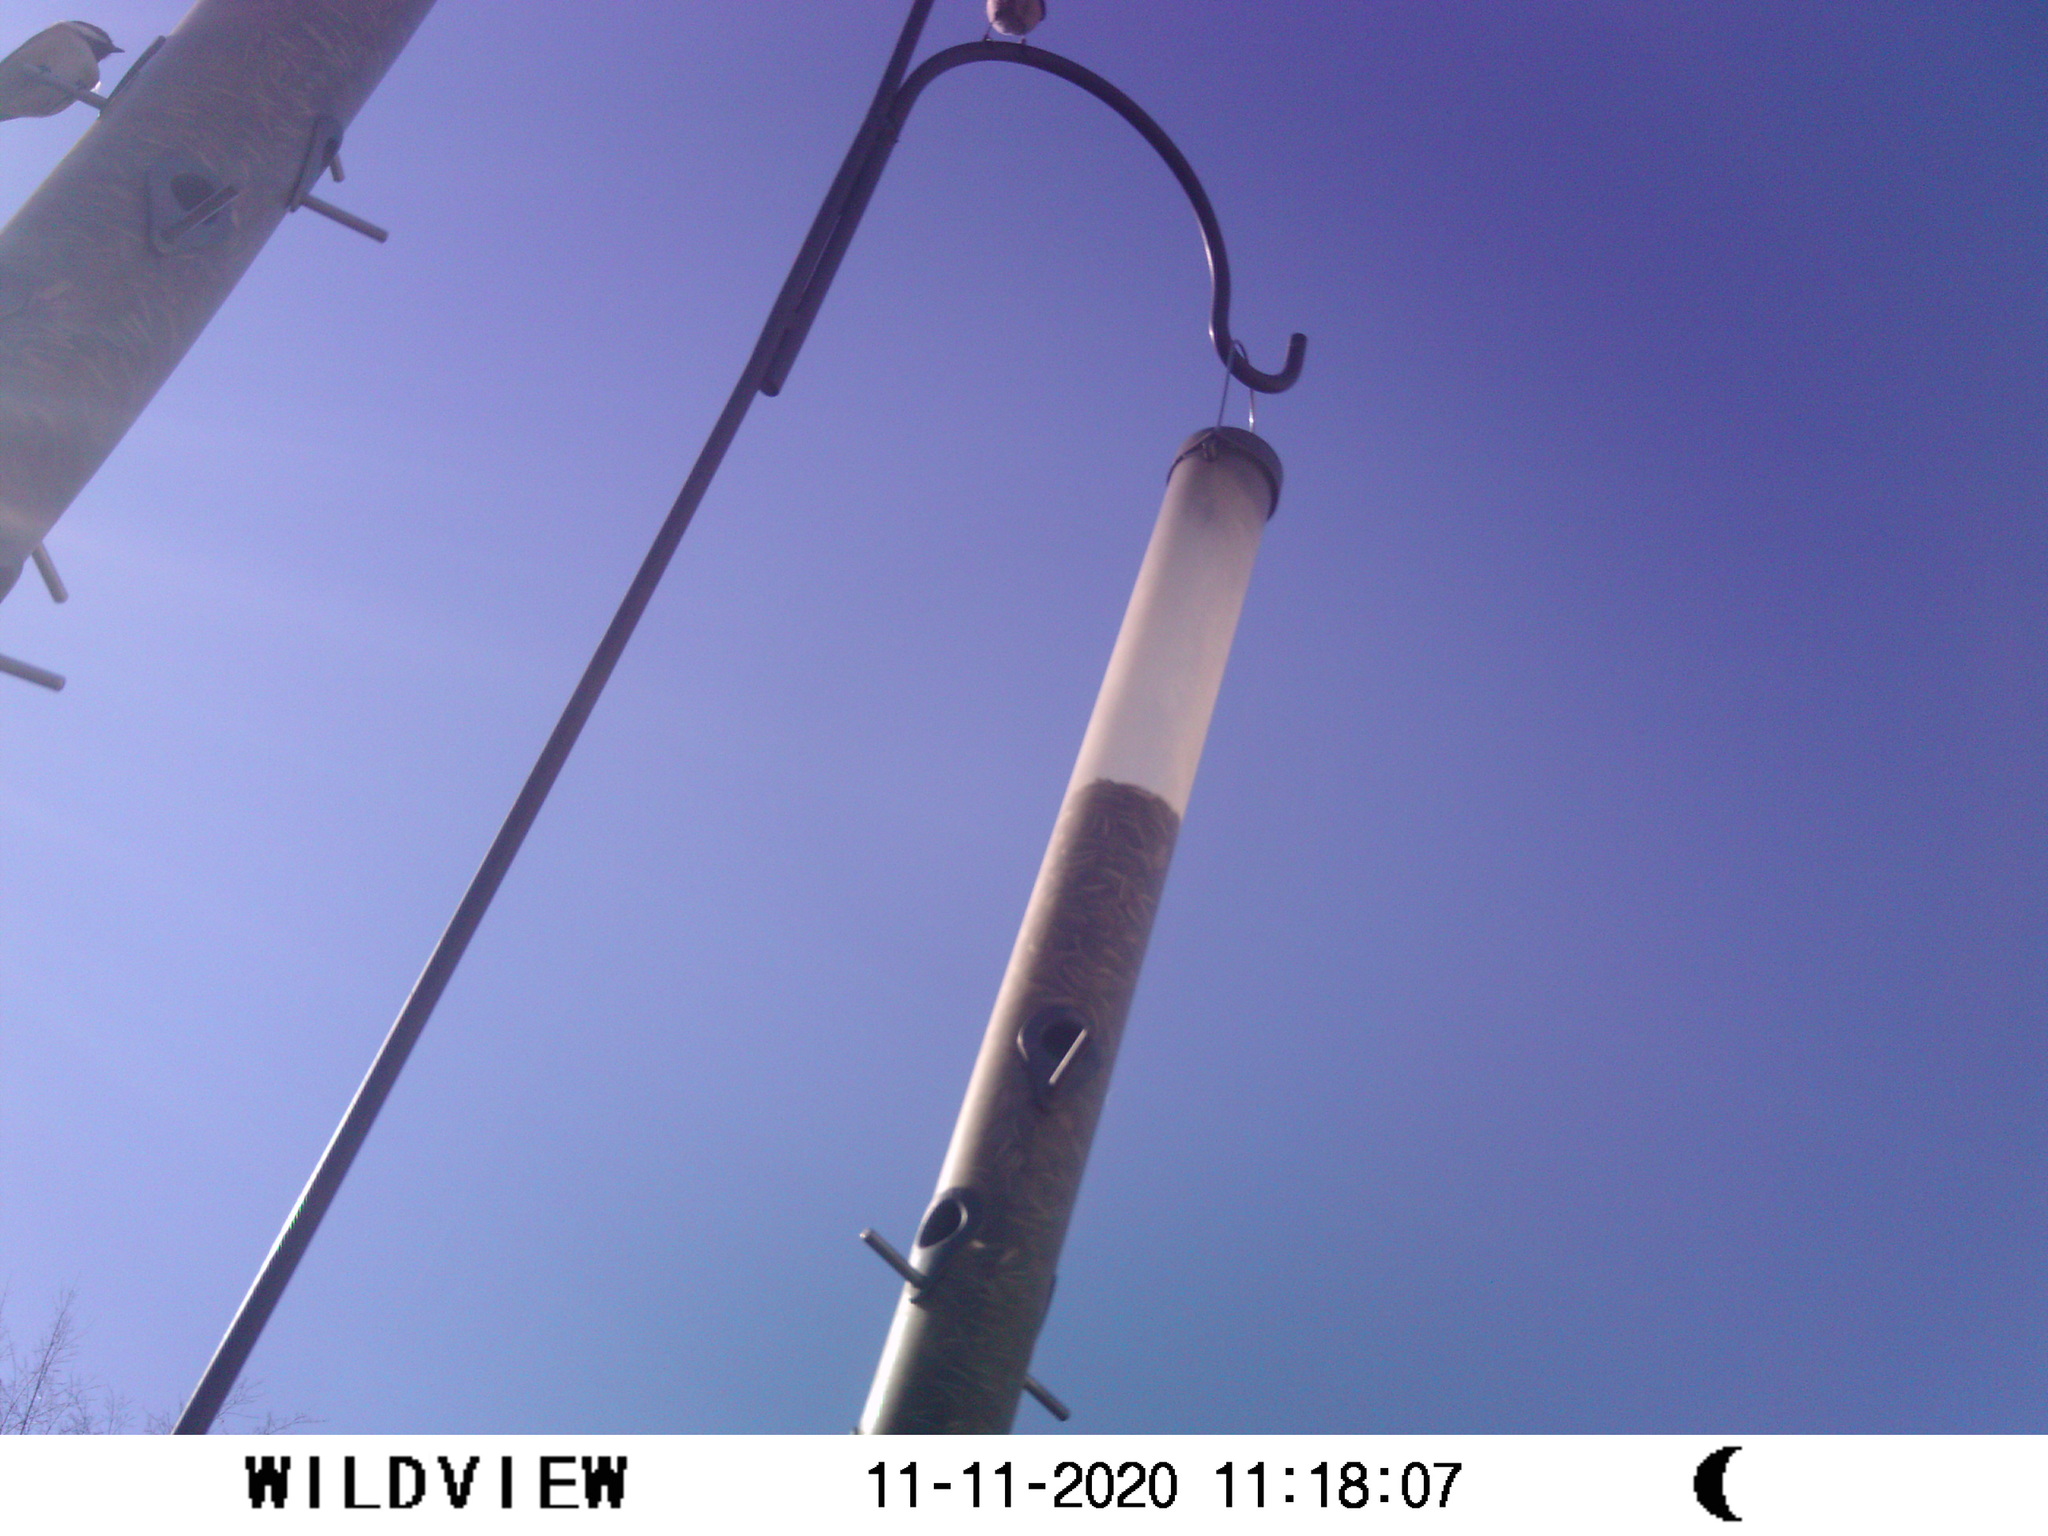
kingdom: Animalia
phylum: Chordata
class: Aves
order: Passeriformes
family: Paridae
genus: Poecile
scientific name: Poecile atricapillus
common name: Black-capped chickadee
